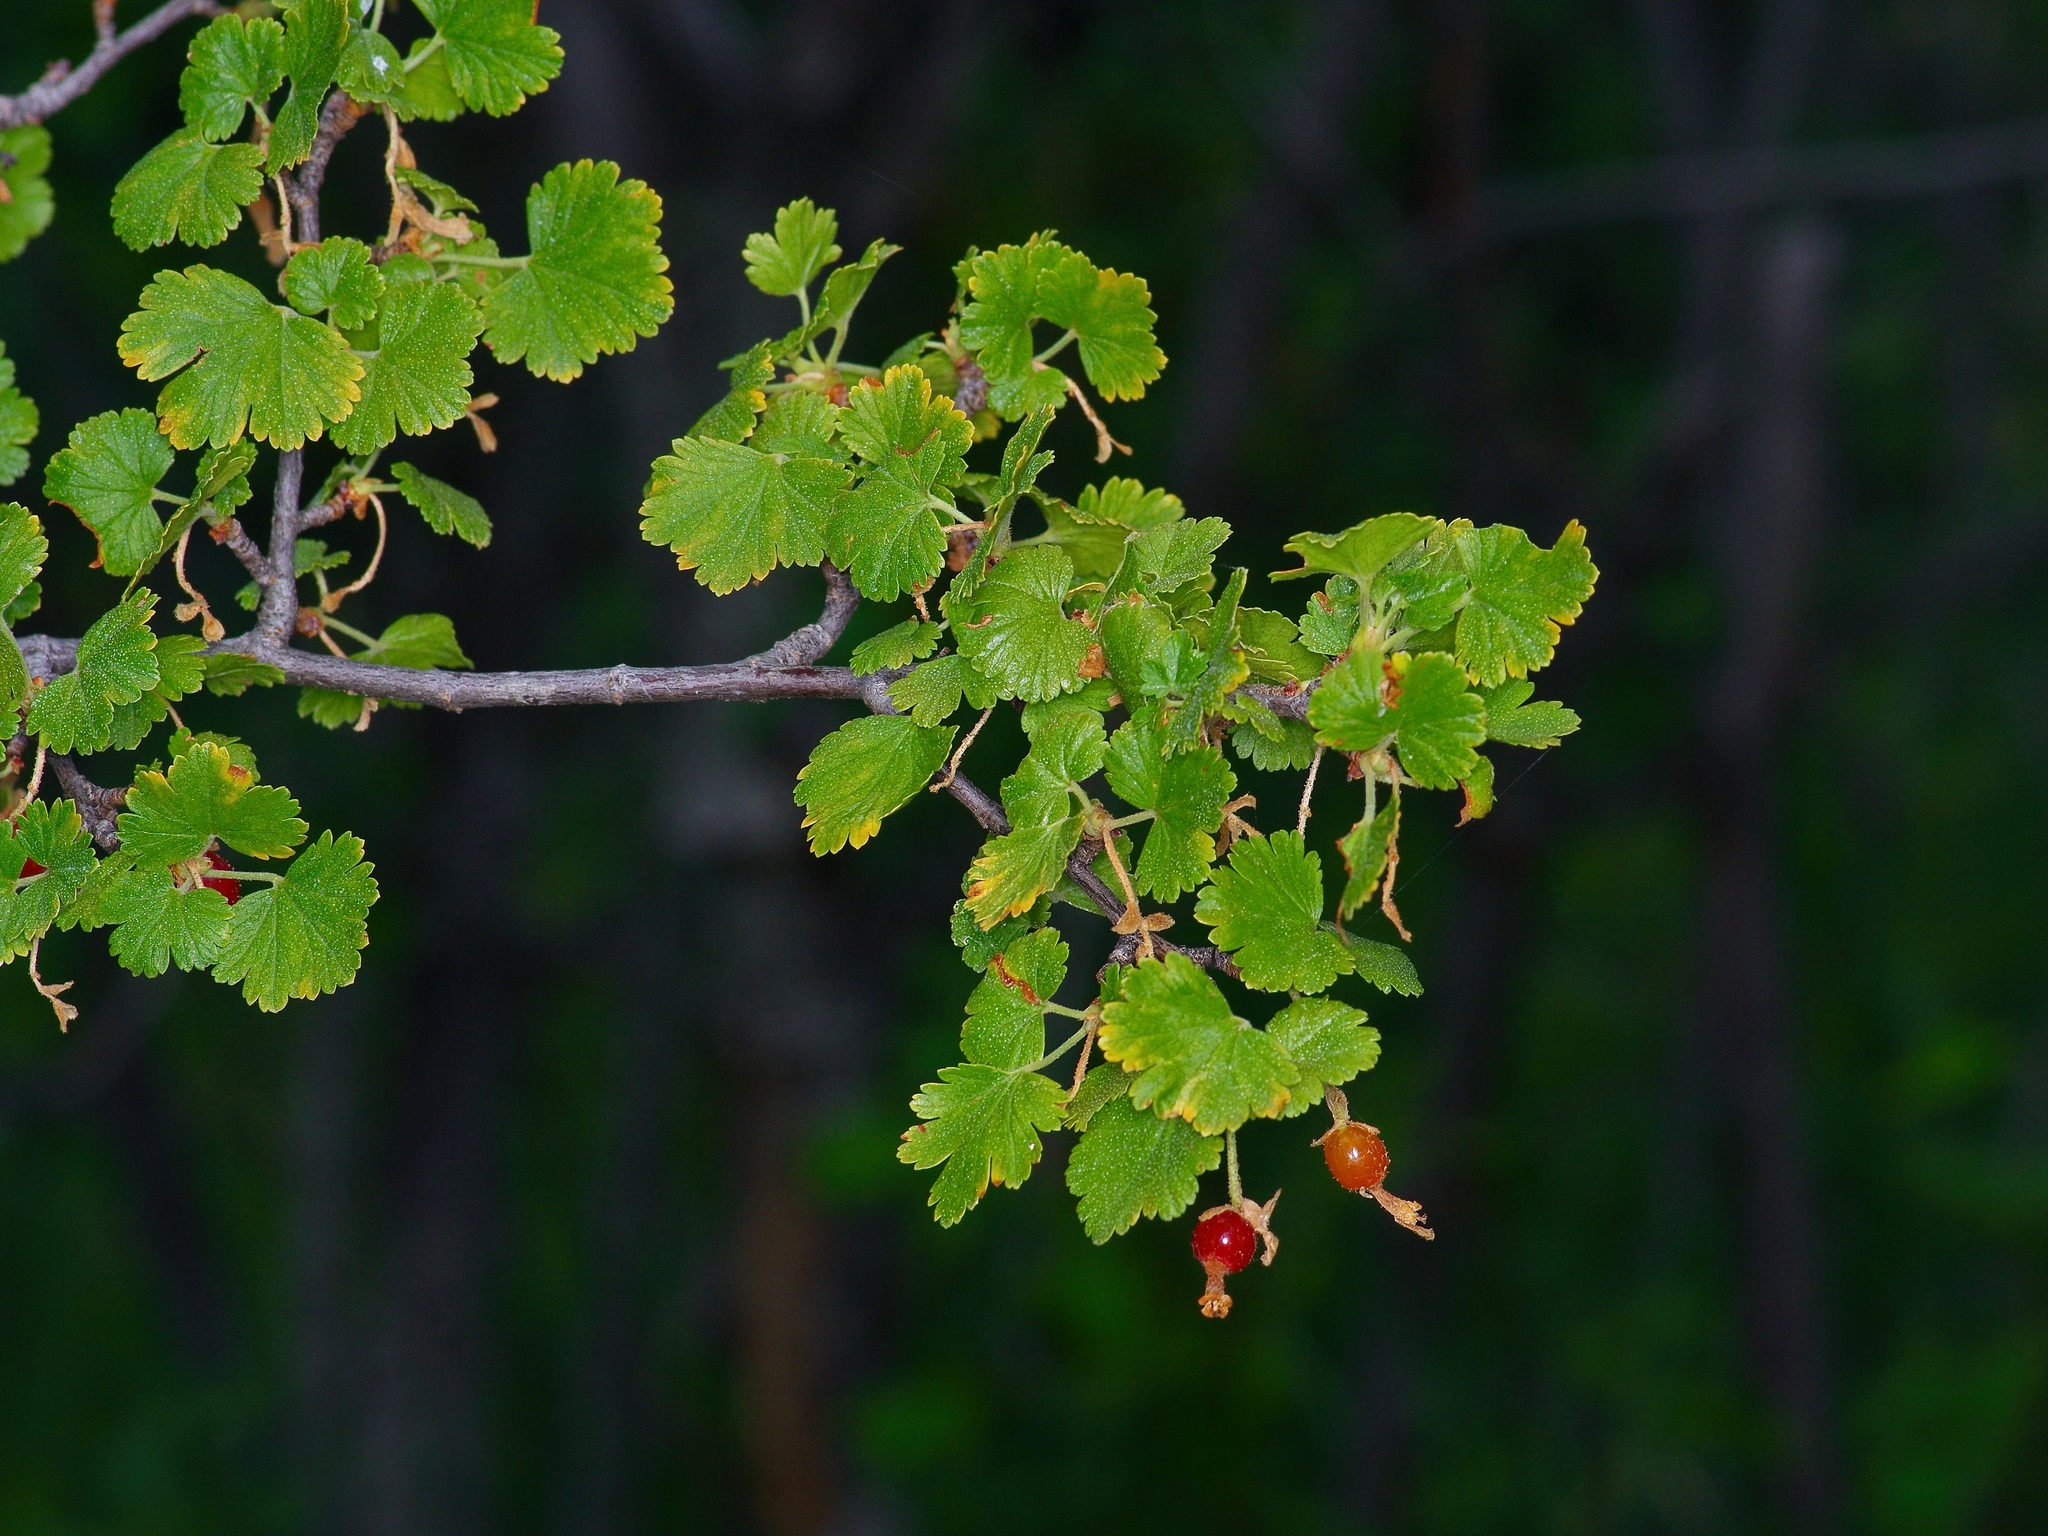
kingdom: Plantae
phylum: Tracheophyta
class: Magnoliopsida
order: Saxifragales
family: Grossulariaceae
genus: Ribes
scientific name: Ribes cereum
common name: Wax currant
